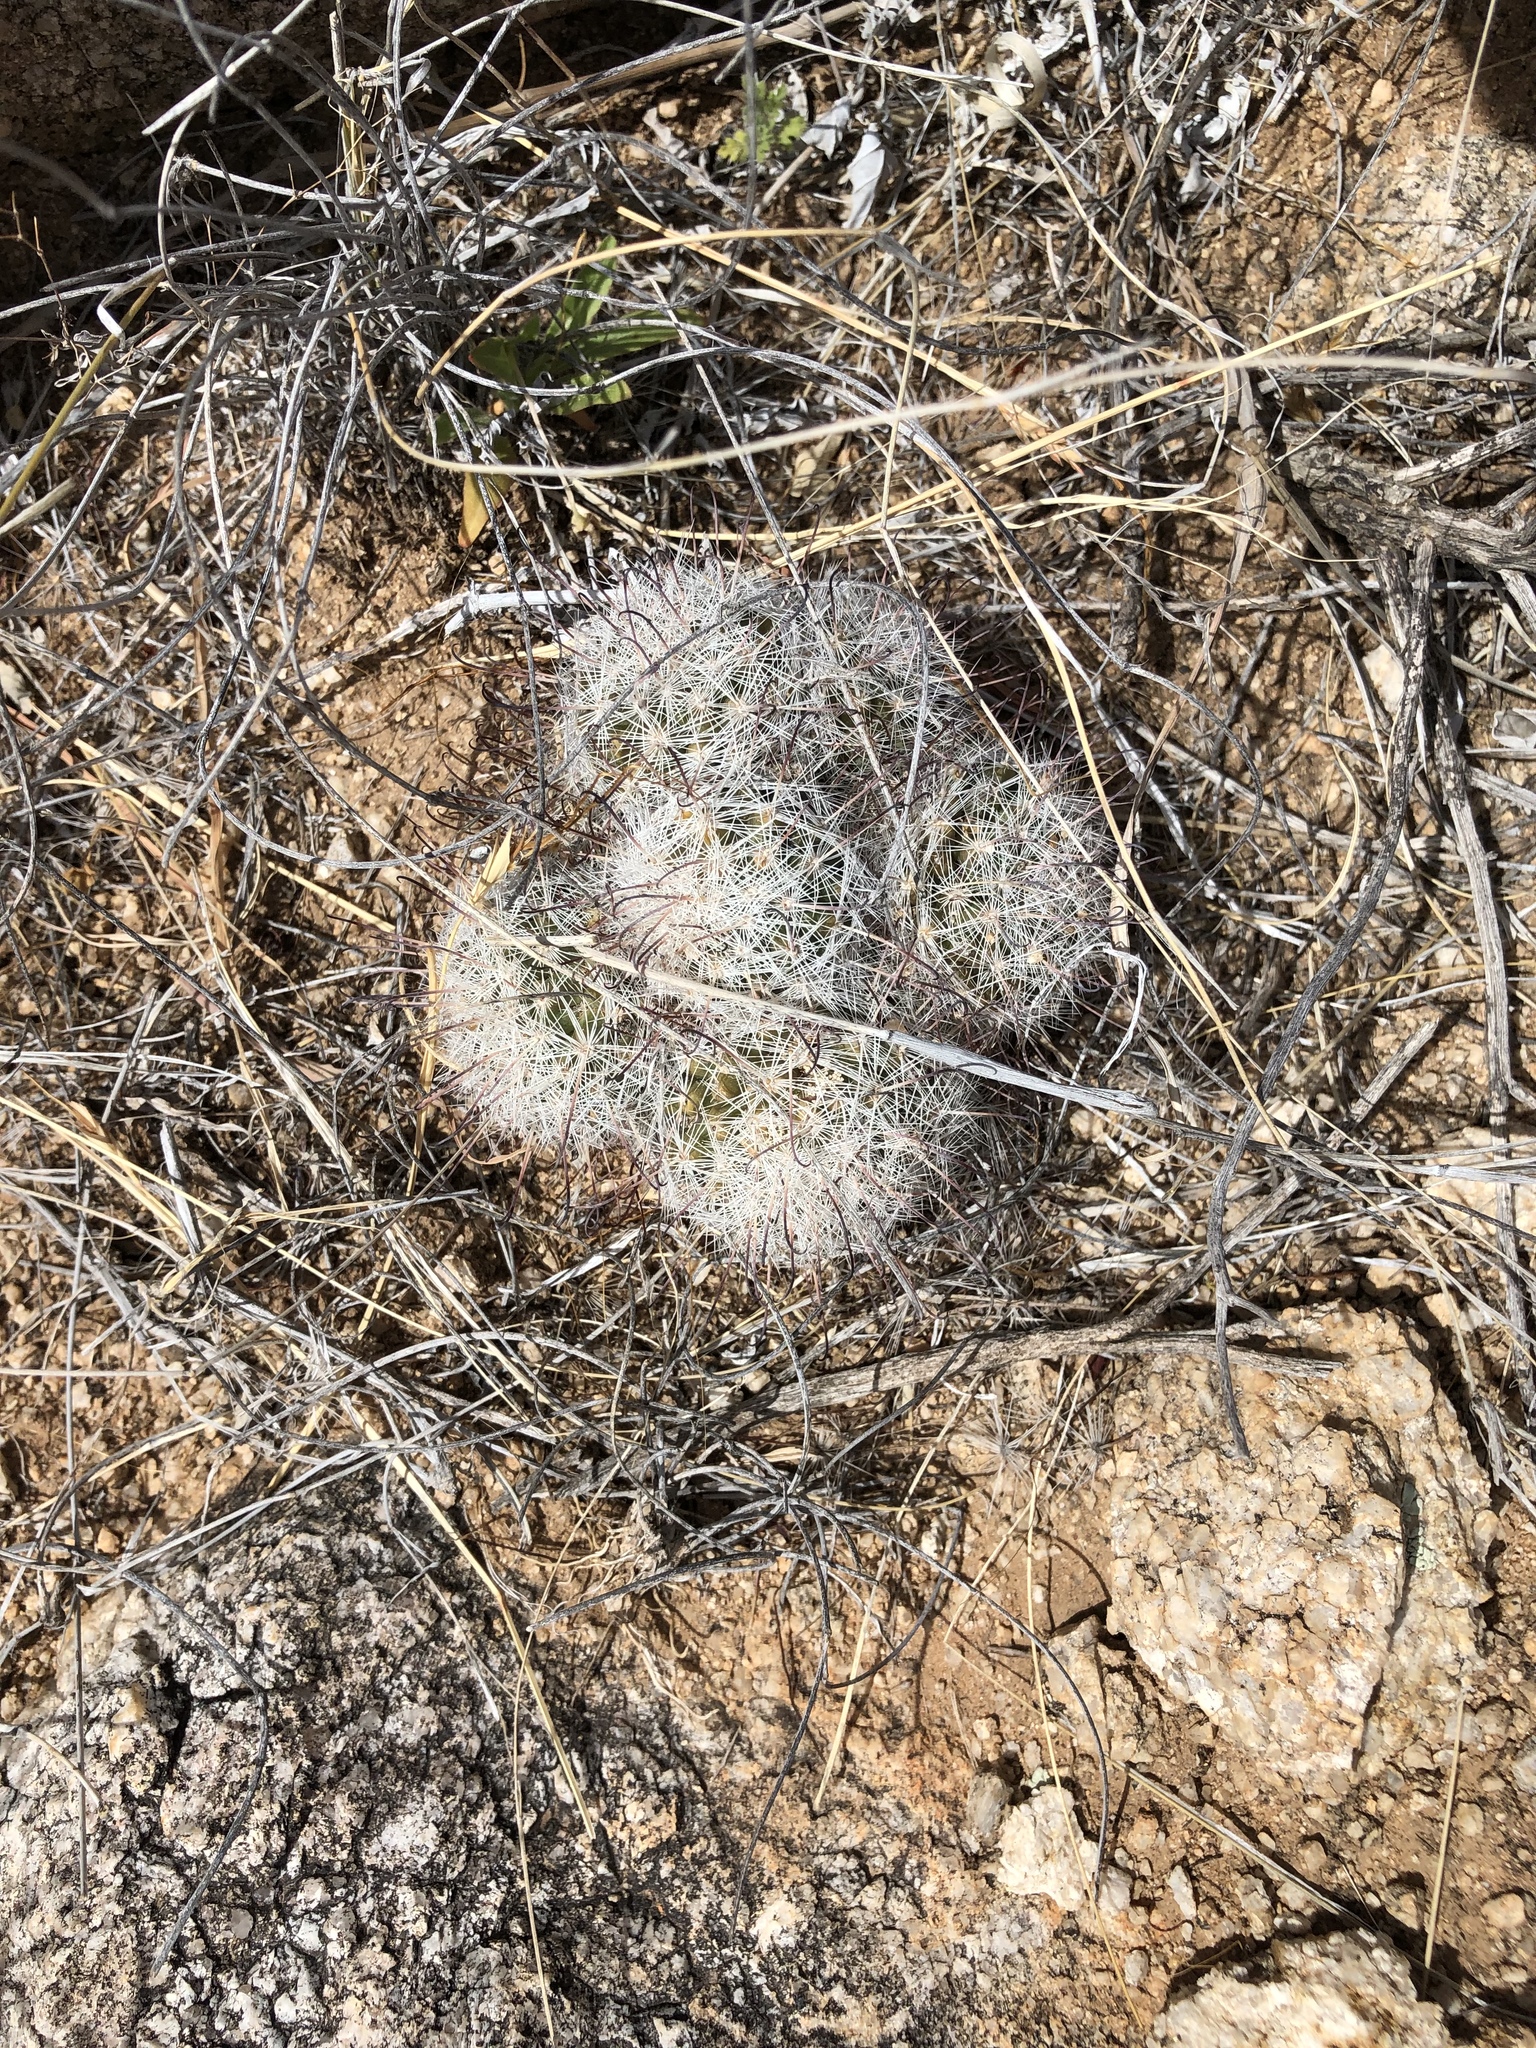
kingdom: Plantae
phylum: Tracheophyta
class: Magnoliopsida
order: Caryophyllales
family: Cactaceae
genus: Cochemiea
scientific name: Cochemiea grahamii
